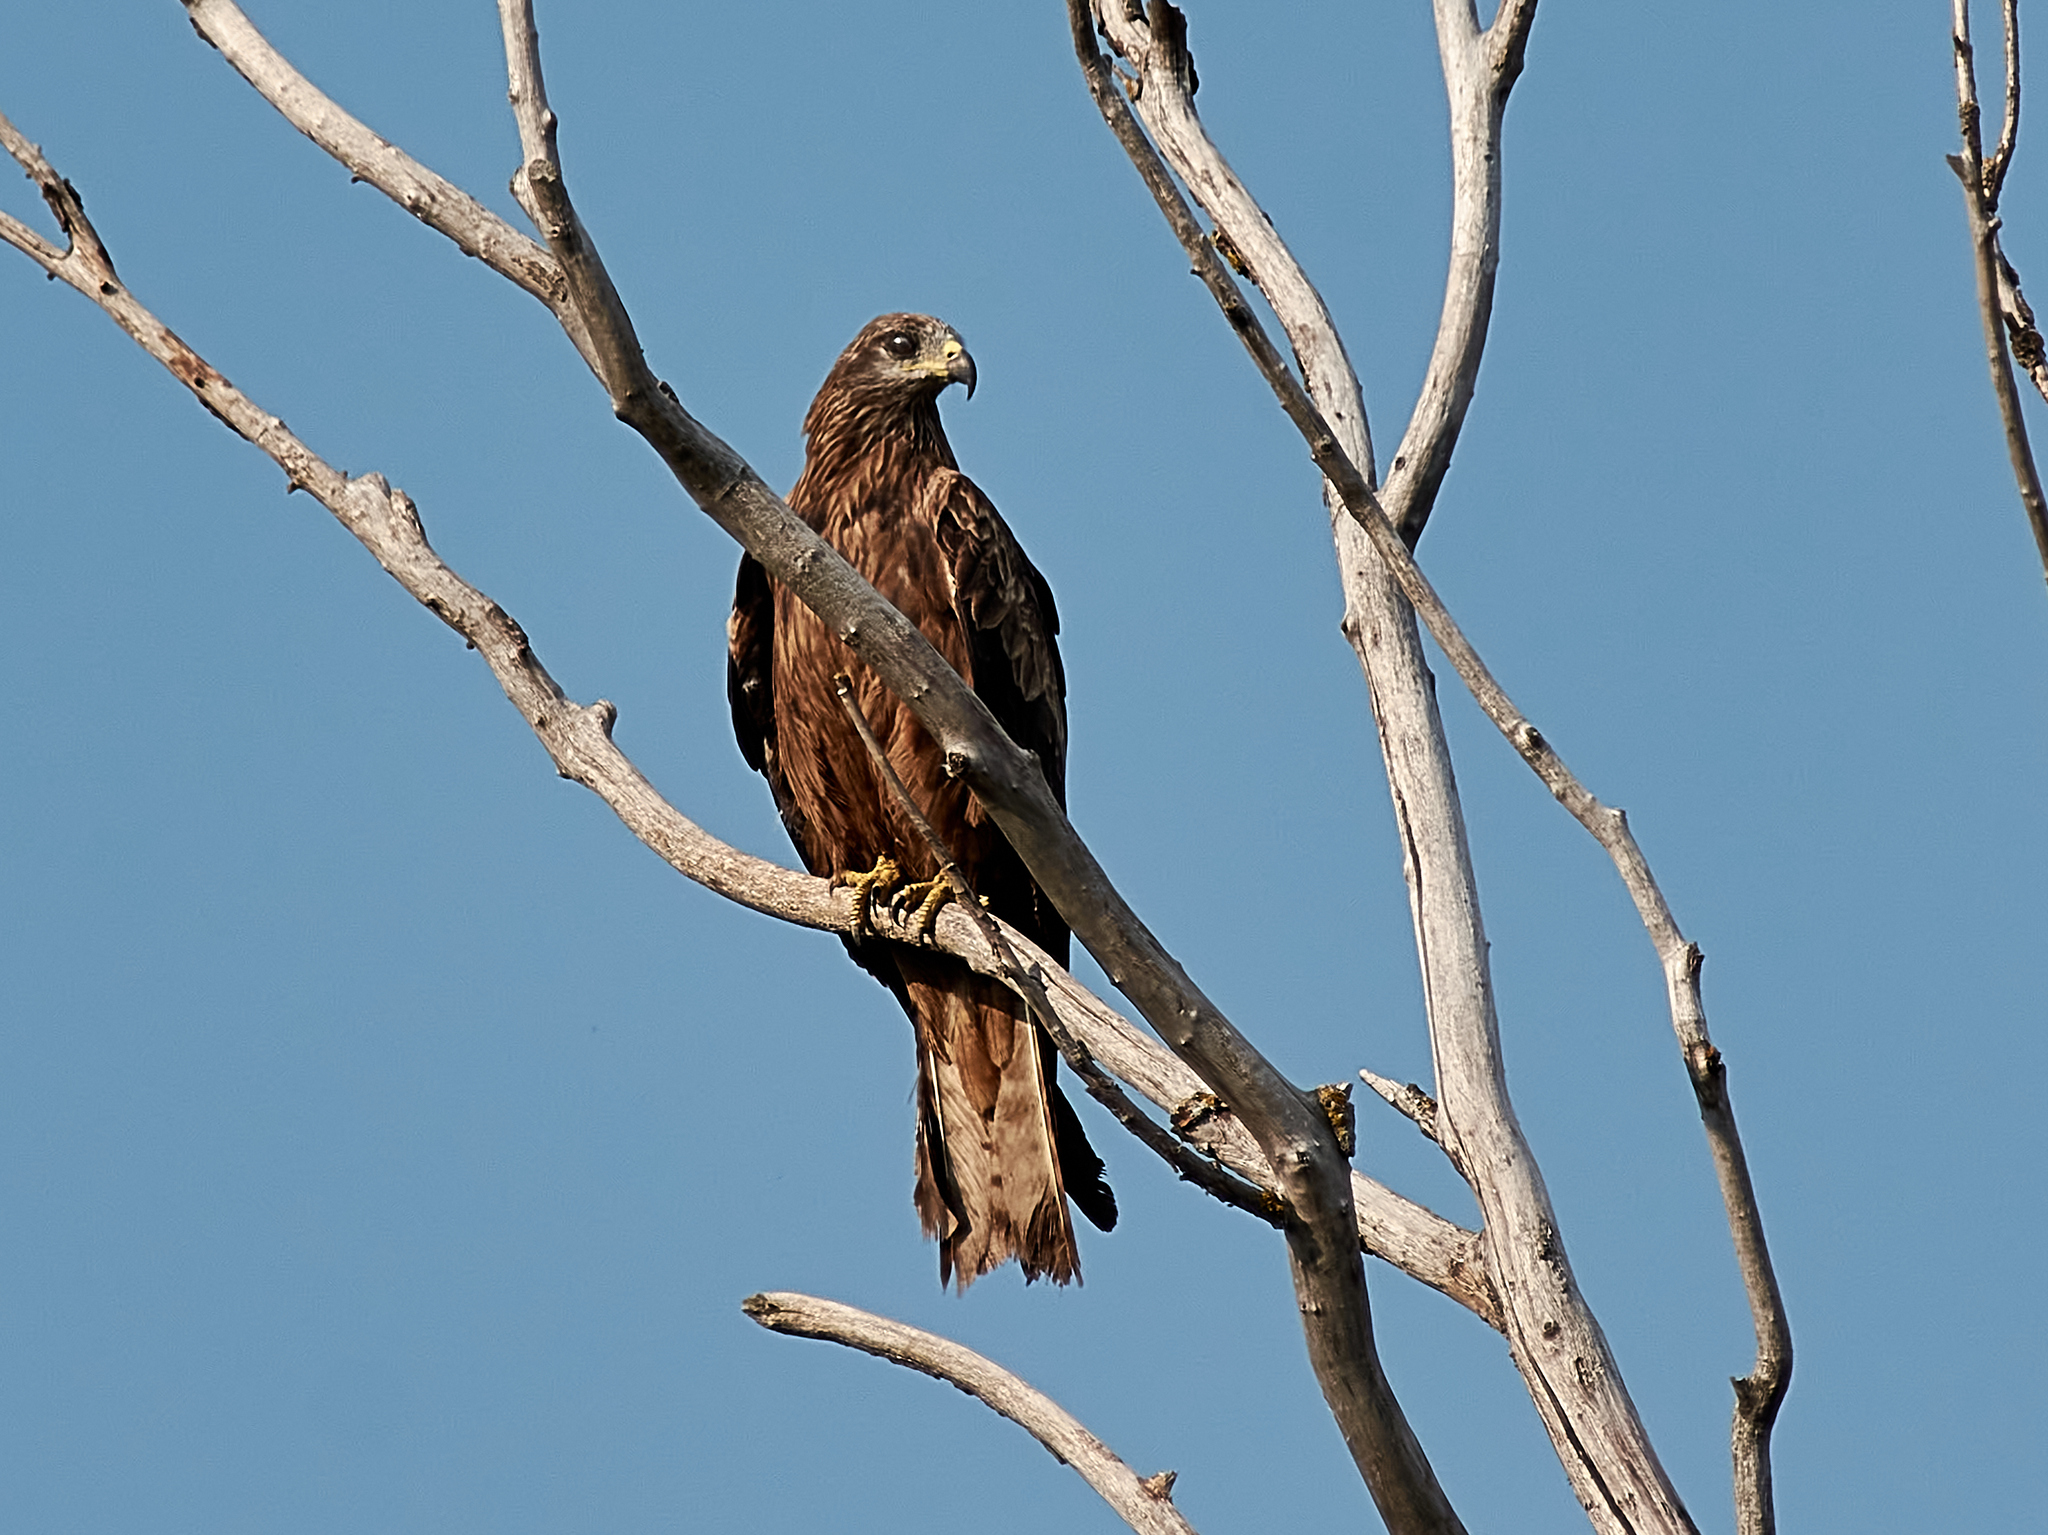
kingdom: Animalia
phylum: Chordata
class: Aves
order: Accipitriformes
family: Accipitridae
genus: Milvus
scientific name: Milvus migrans
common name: Black kite
